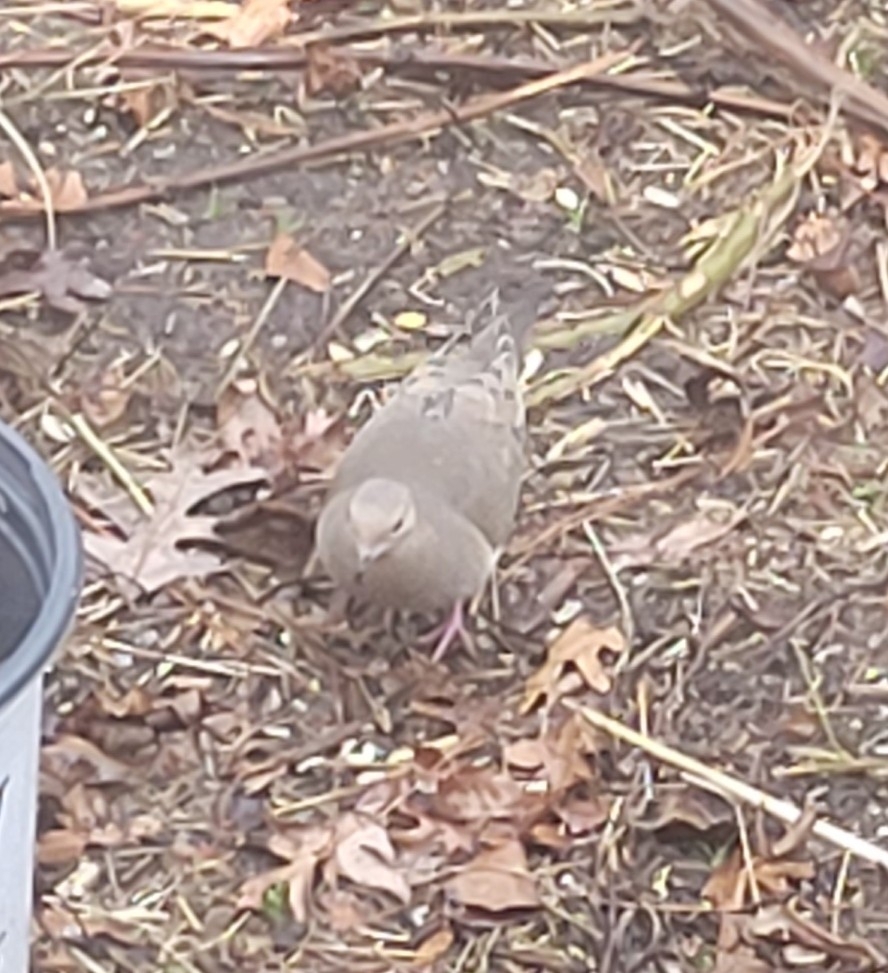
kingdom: Animalia
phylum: Chordata
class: Aves
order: Columbiformes
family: Columbidae
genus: Zenaida
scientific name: Zenaida macroura
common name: Mourning dove
